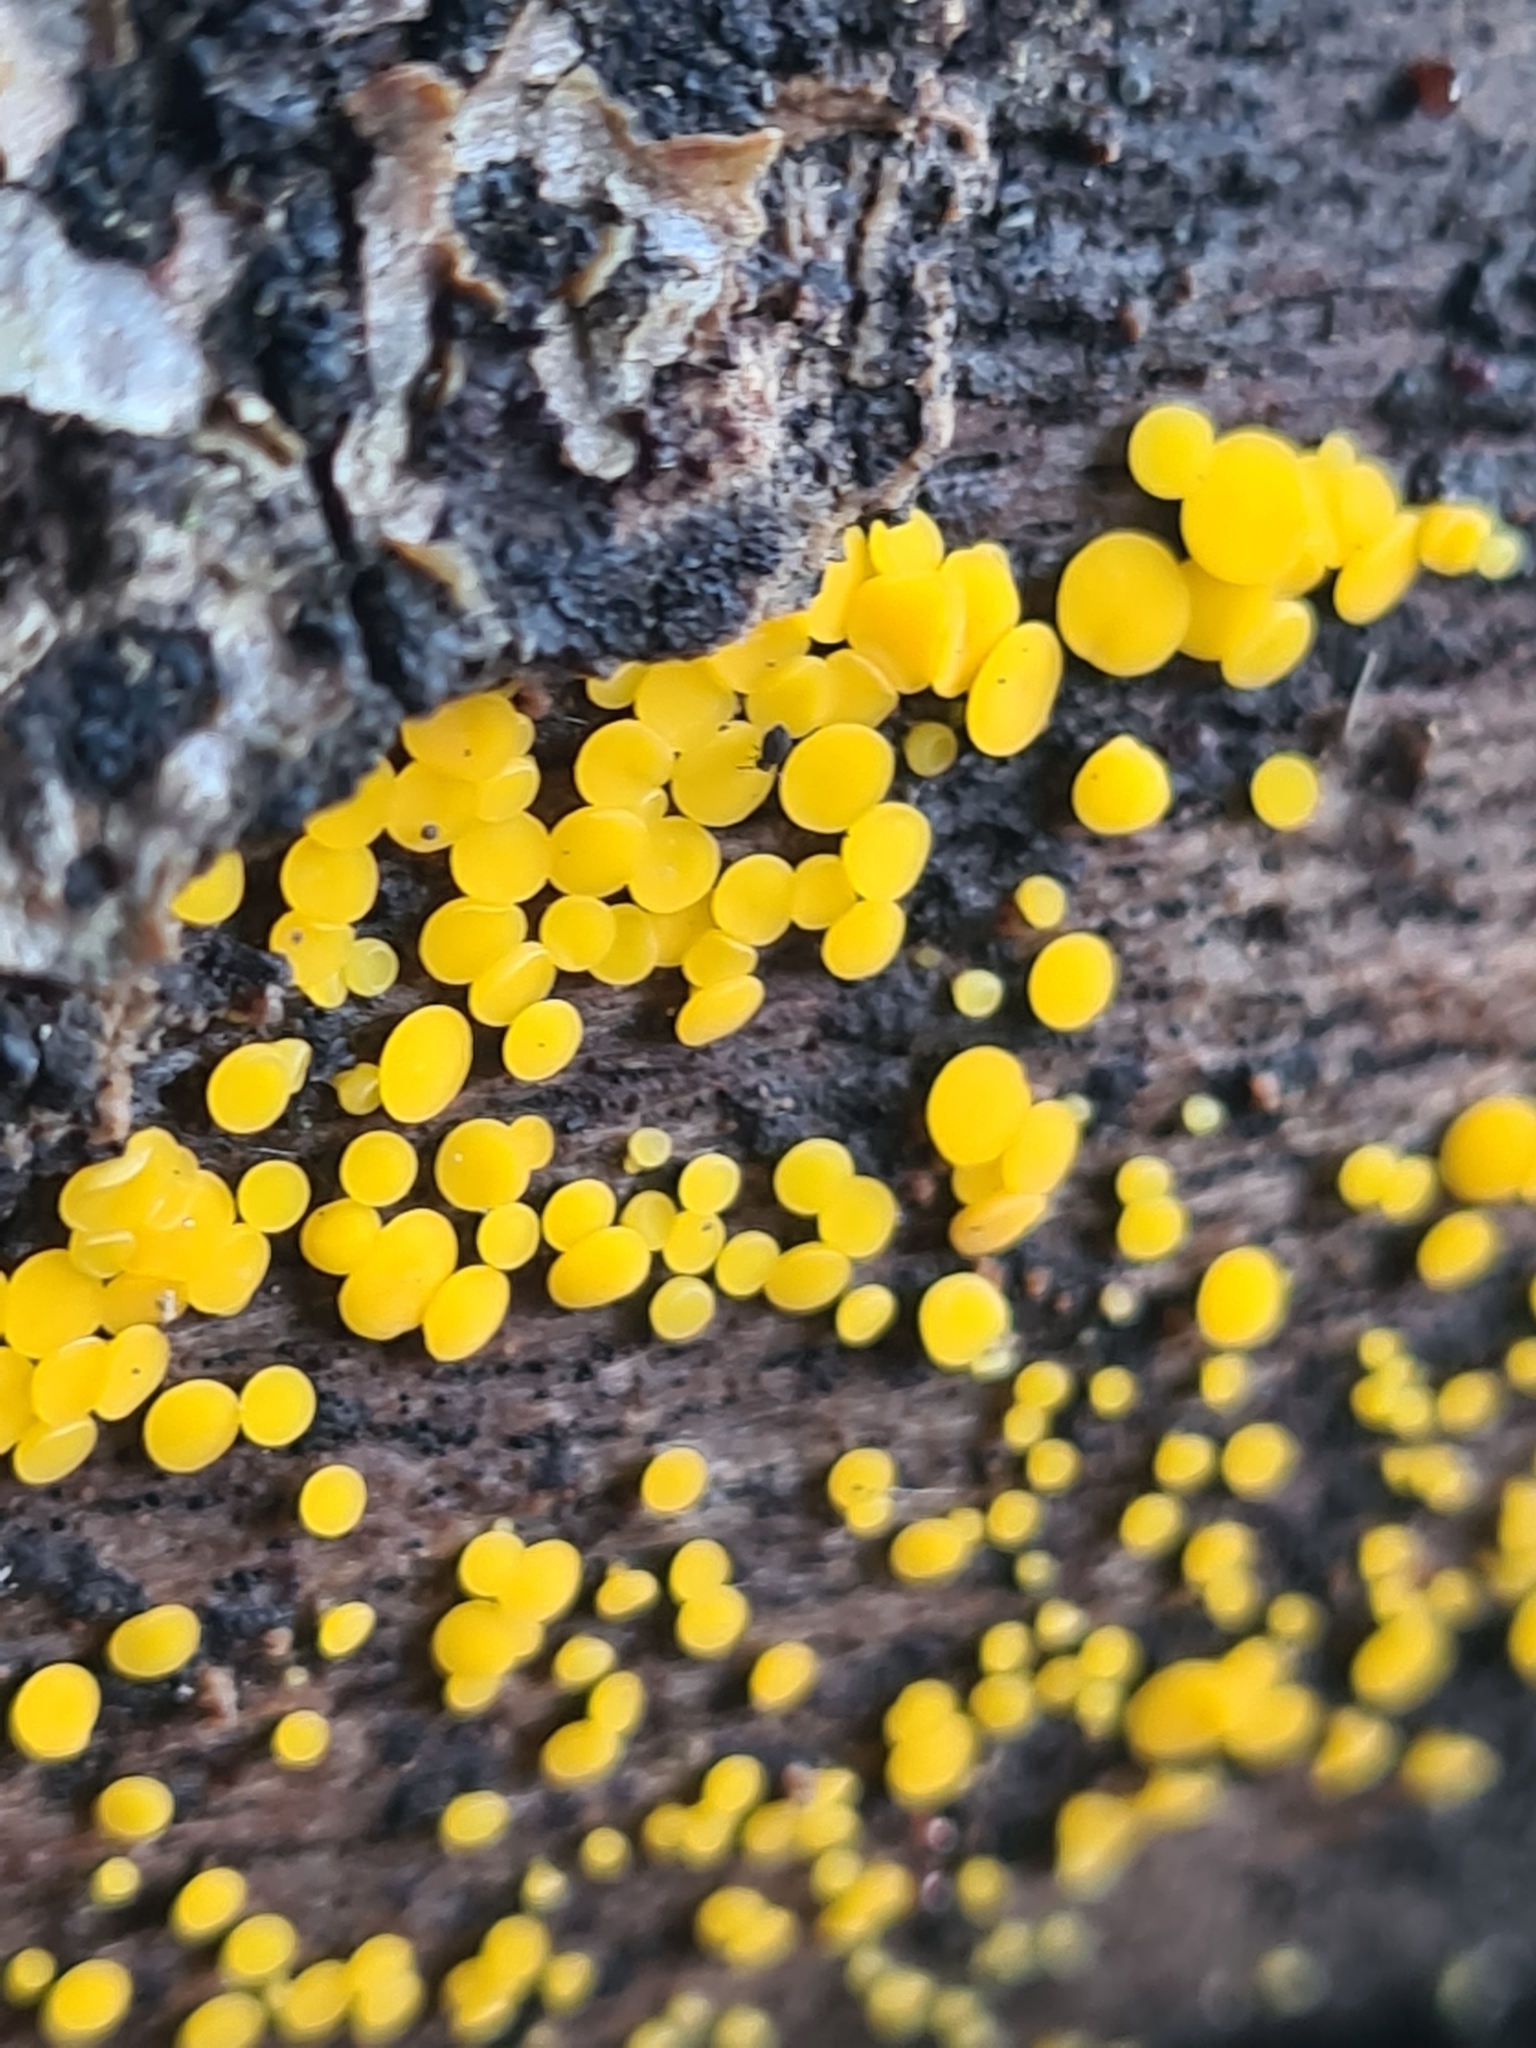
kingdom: Fungi
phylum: Ascomycota
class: Leotiomycetes
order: Helotiales
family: Pezizellaceae
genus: Calycina
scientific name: Calycina citrina
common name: Yellow fairy cups
